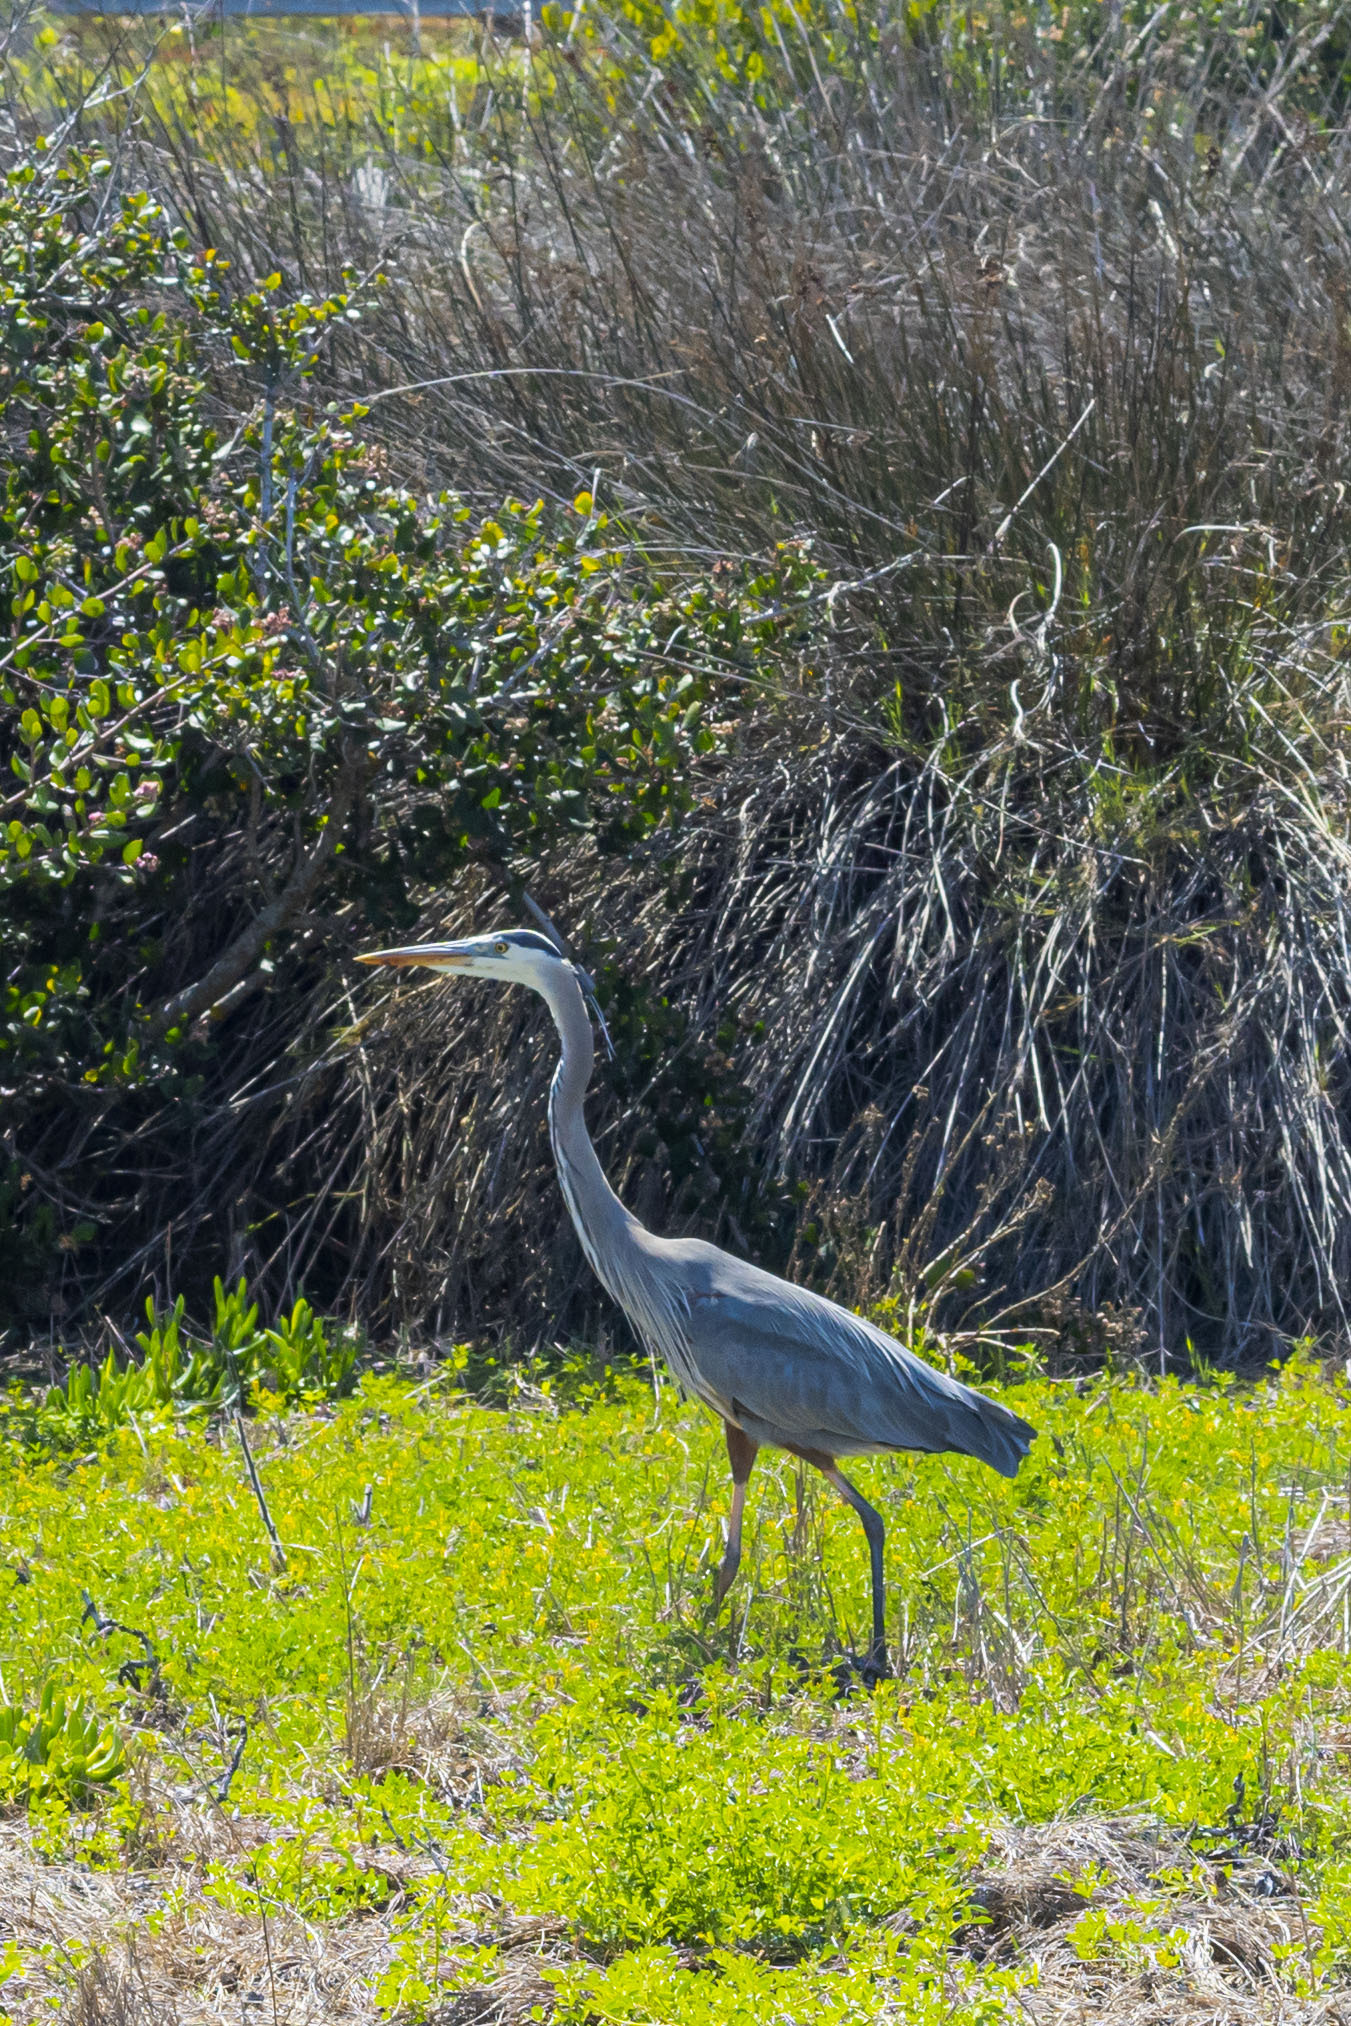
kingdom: Animalia
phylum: Chordata
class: Aves
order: Pelecaniformes
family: Ardeidae
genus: Ardea
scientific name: Ardea herodias
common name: Great blue heron
